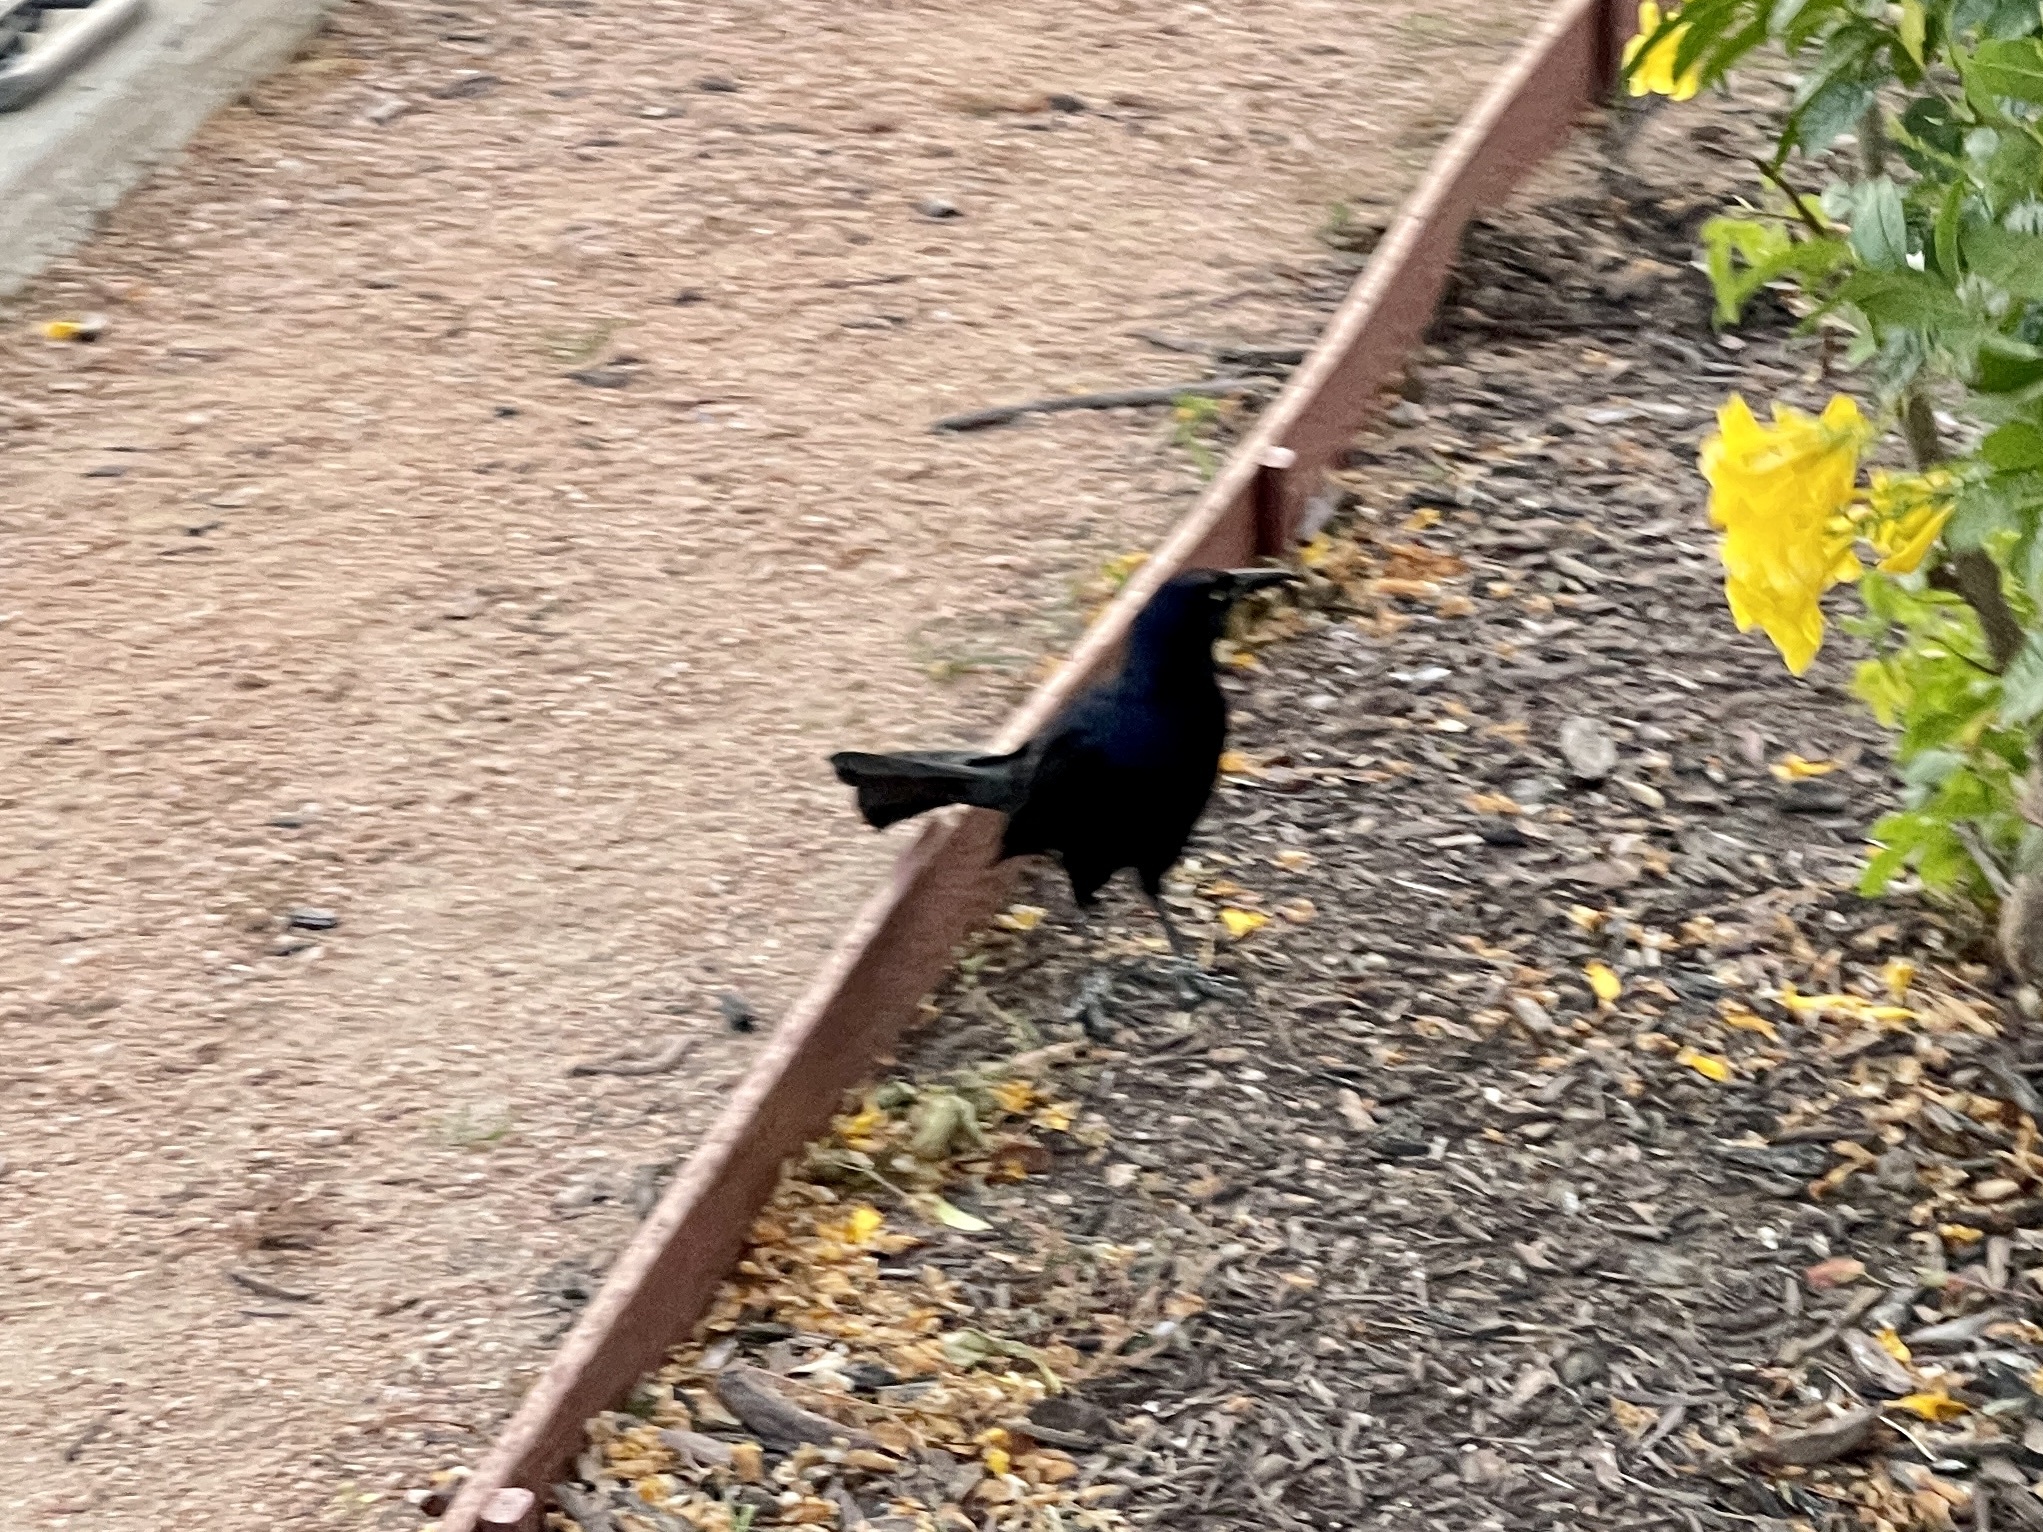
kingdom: Animalia
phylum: Chordata
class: Aves
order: Passeriformes
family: Icteridae
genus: Quiscalus
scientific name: Quiscalus mexicanus
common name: Great-tailed grackle
